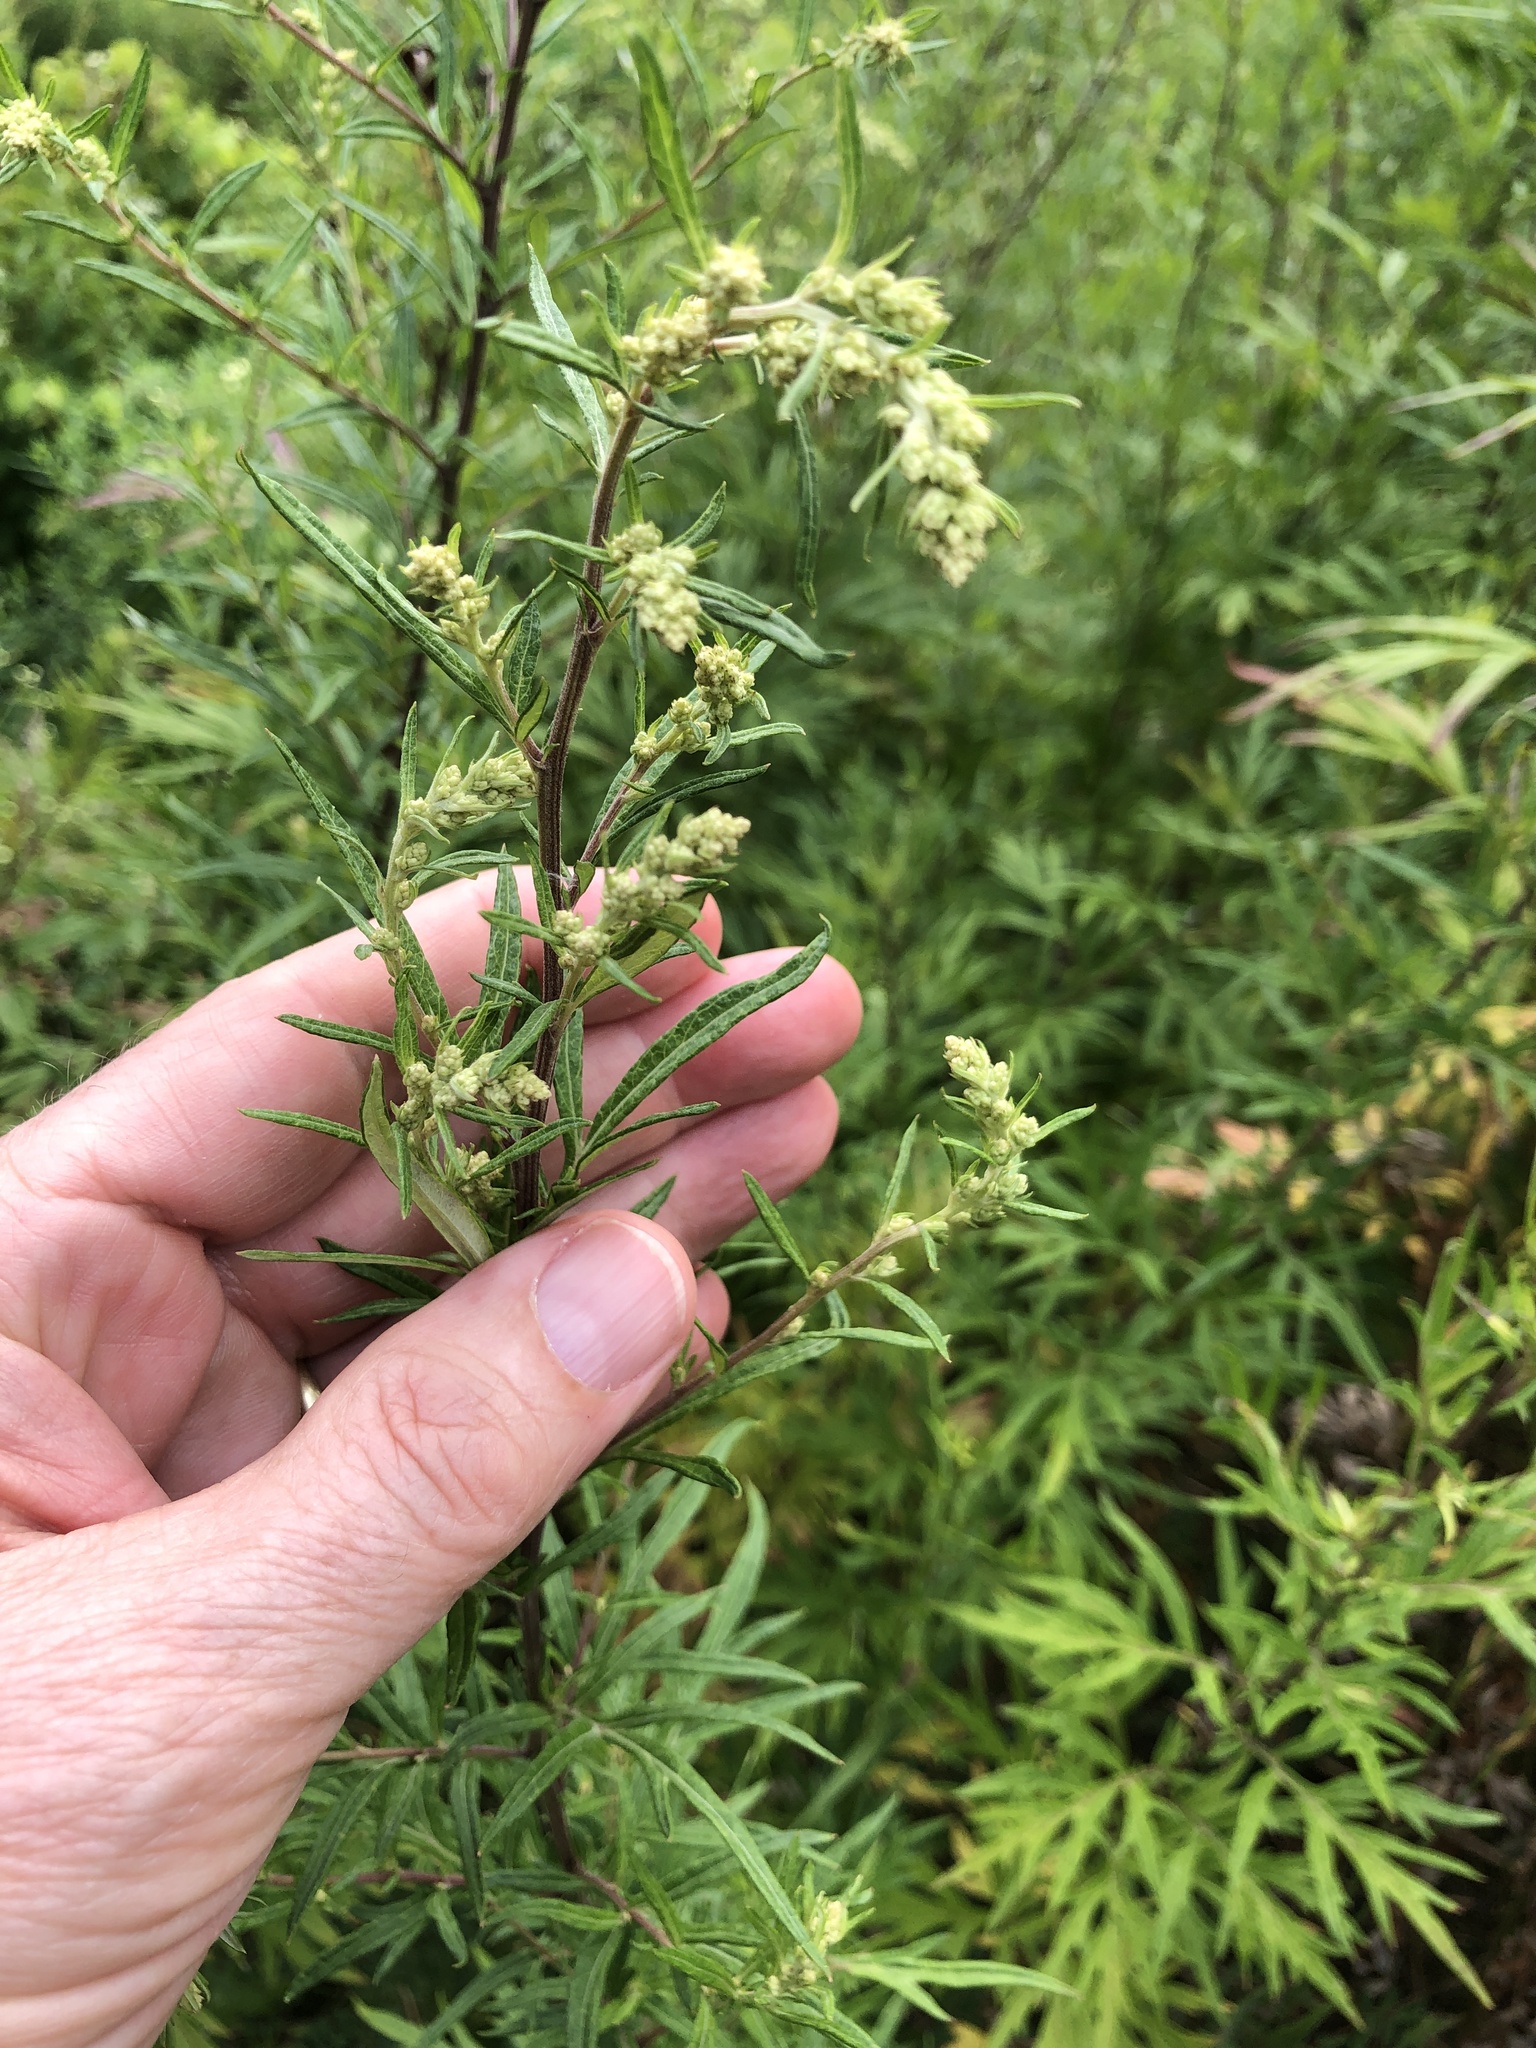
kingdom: Plantae
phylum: Tracheophyta
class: Magnoliopsida
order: Asterales
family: Asteraceae
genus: Artemisia
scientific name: Artemisia vulgaris
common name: Mugwort
